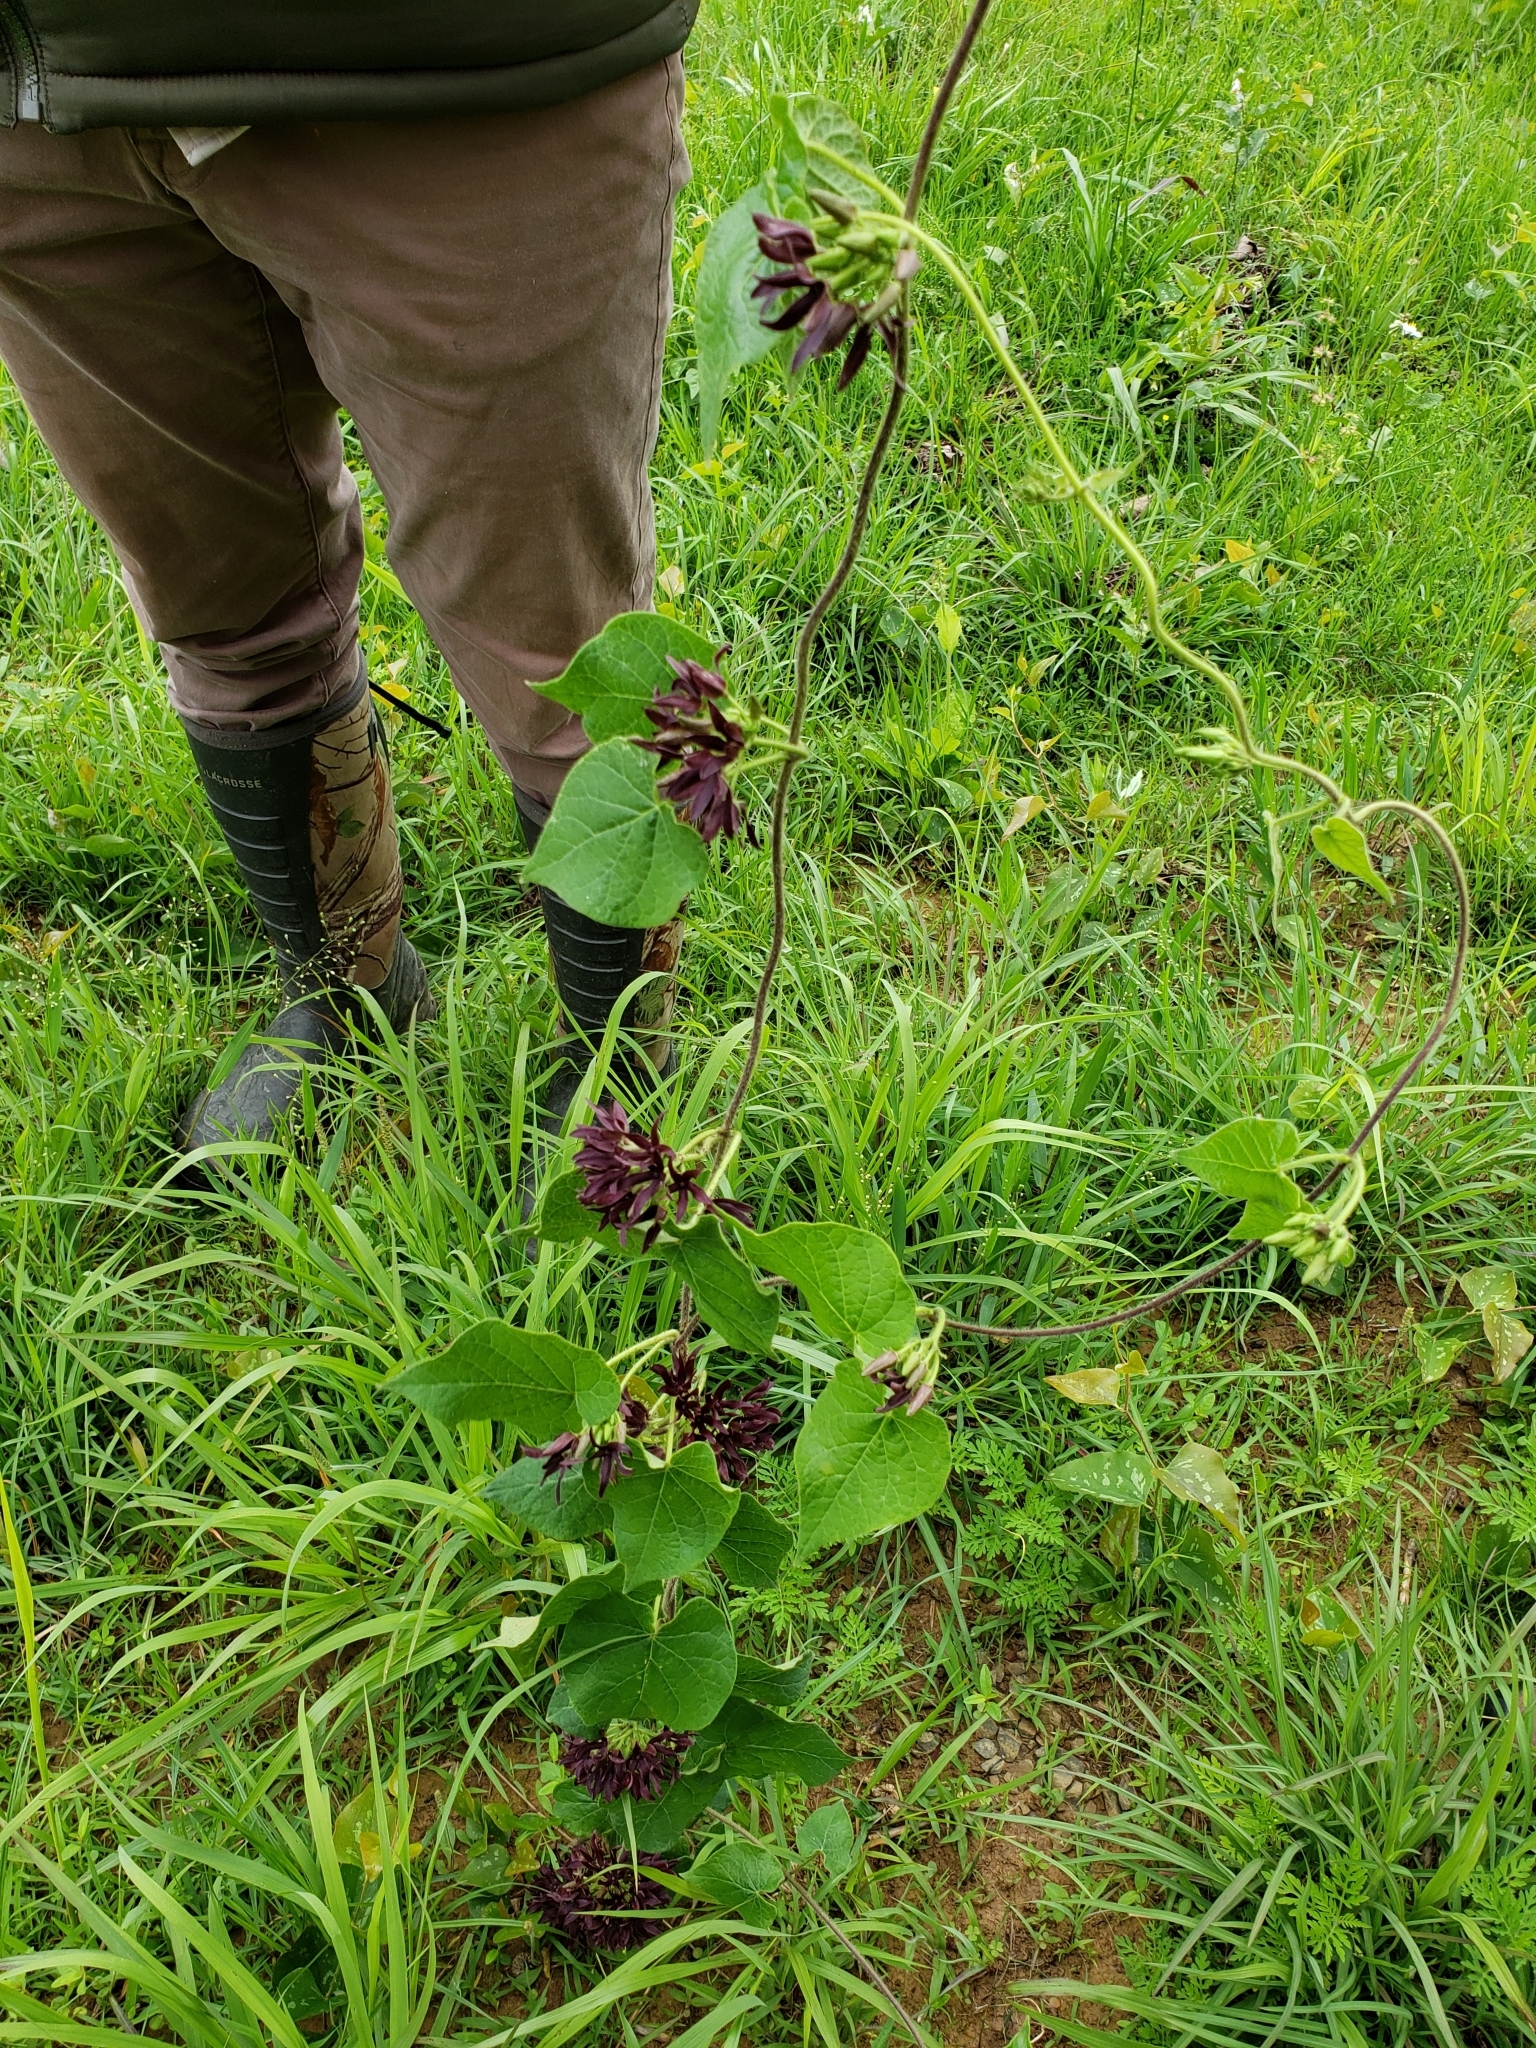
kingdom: Plantae
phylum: Tracheophyta
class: Magnoliopsida
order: Gentianales
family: Apocynaceae
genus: Matelea
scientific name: Matelea decipiens
